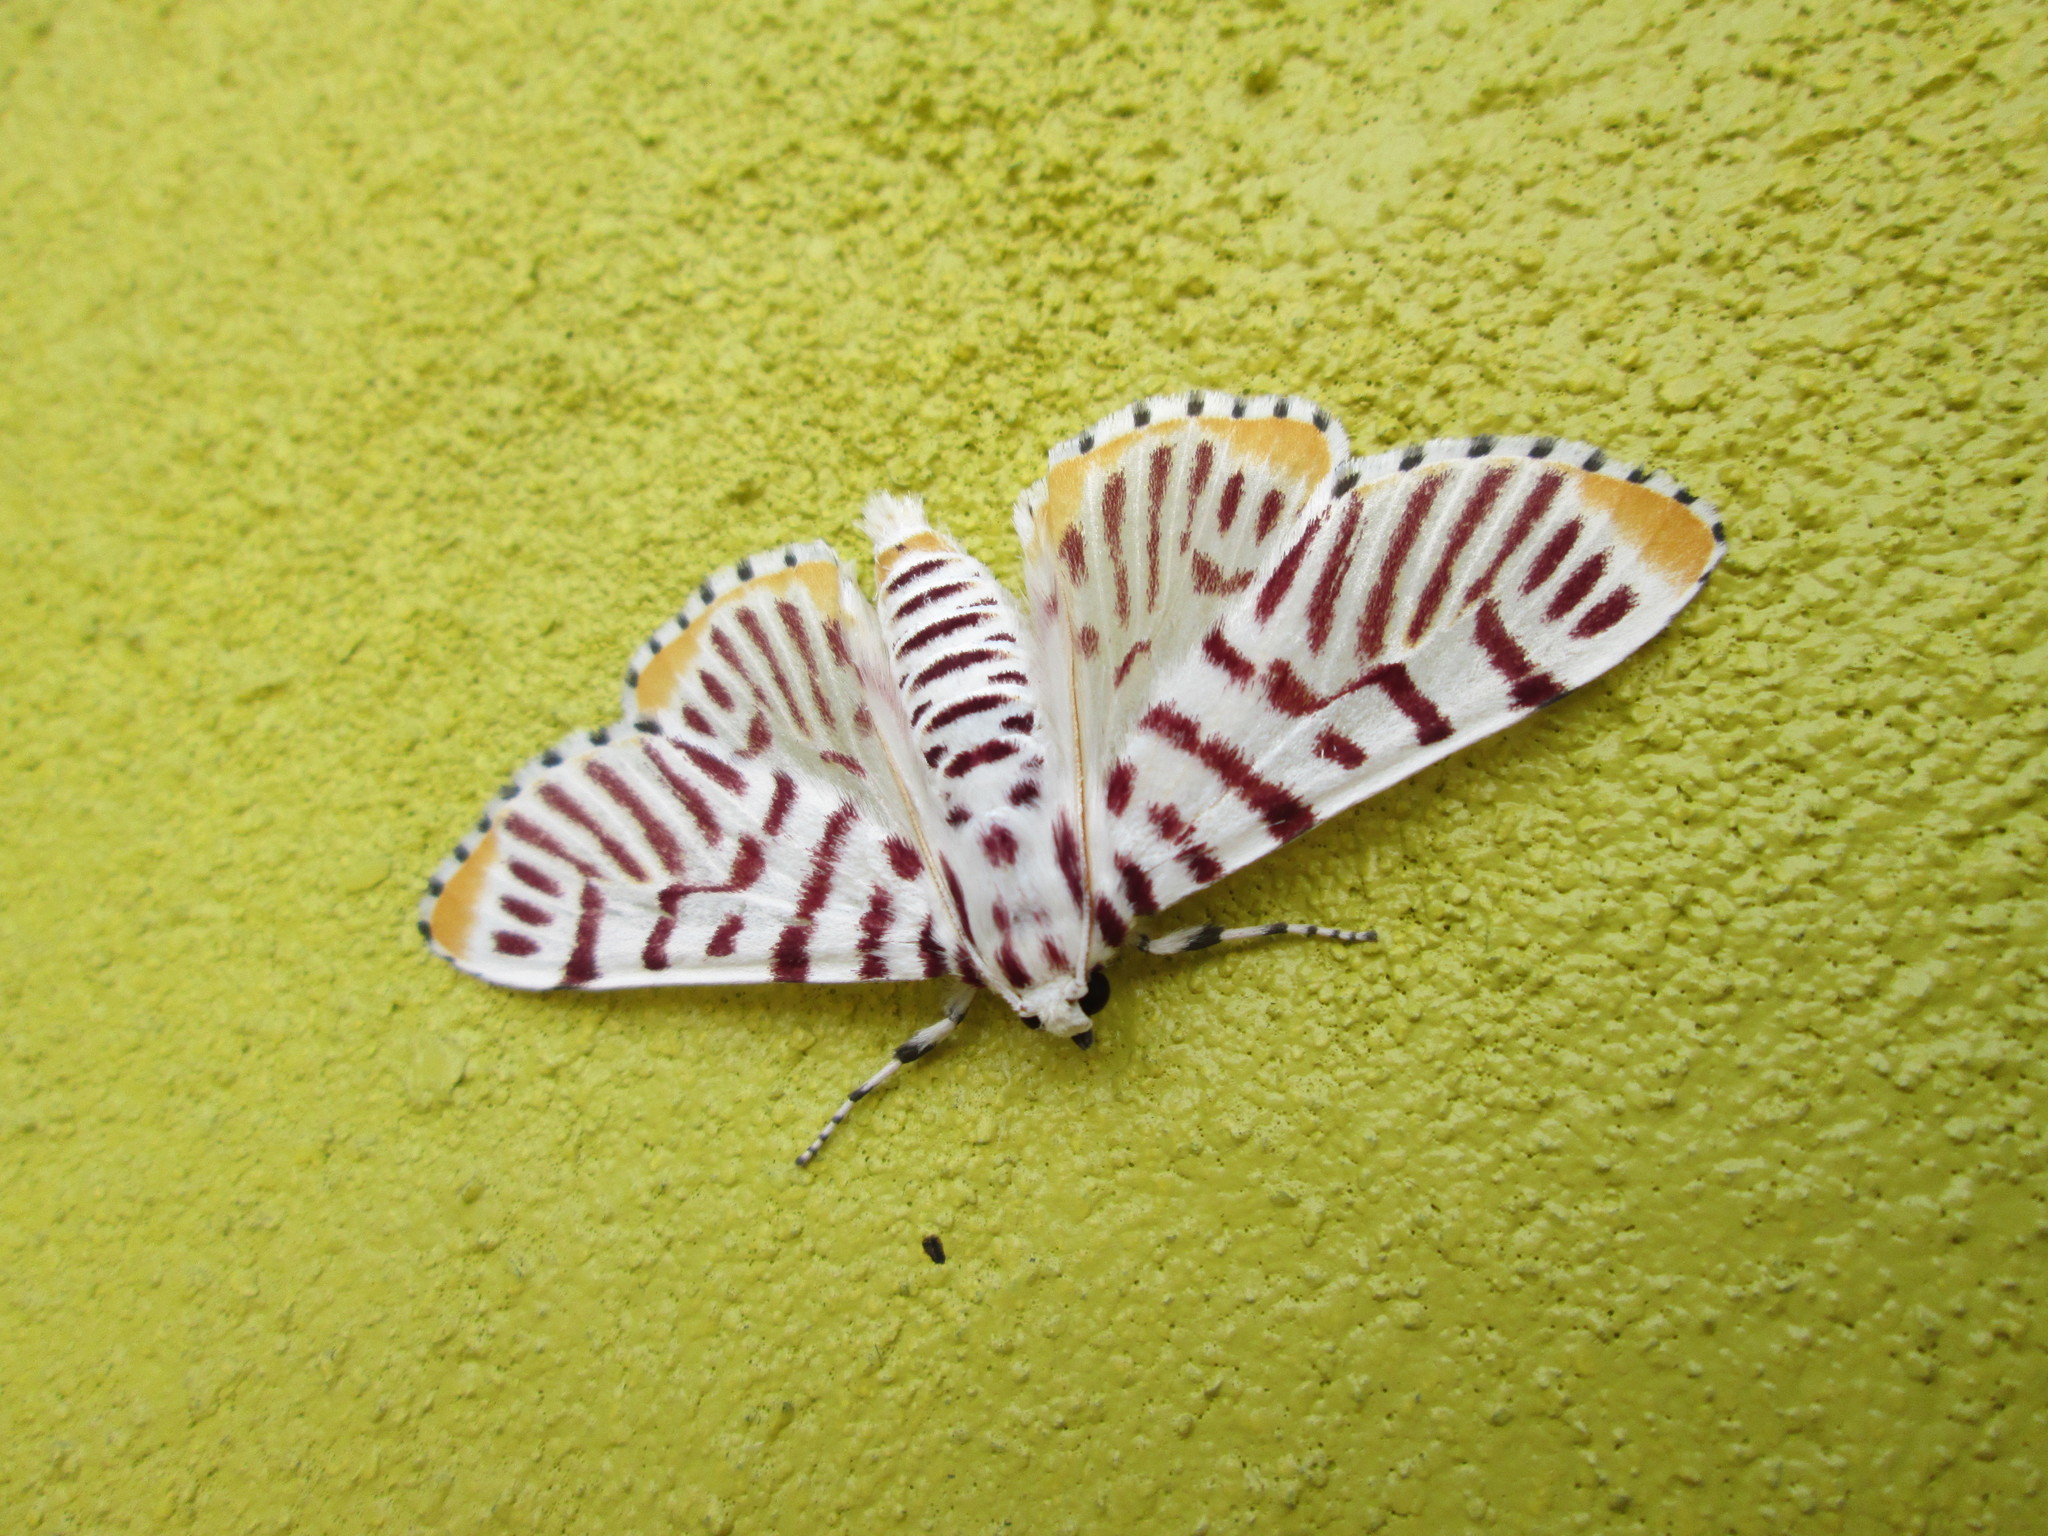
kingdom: Animalia
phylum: Arthropoda
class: Insecta
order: Lepidoptera
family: Crambidae
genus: Polygrammodes
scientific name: Polygrammodes maccalis
